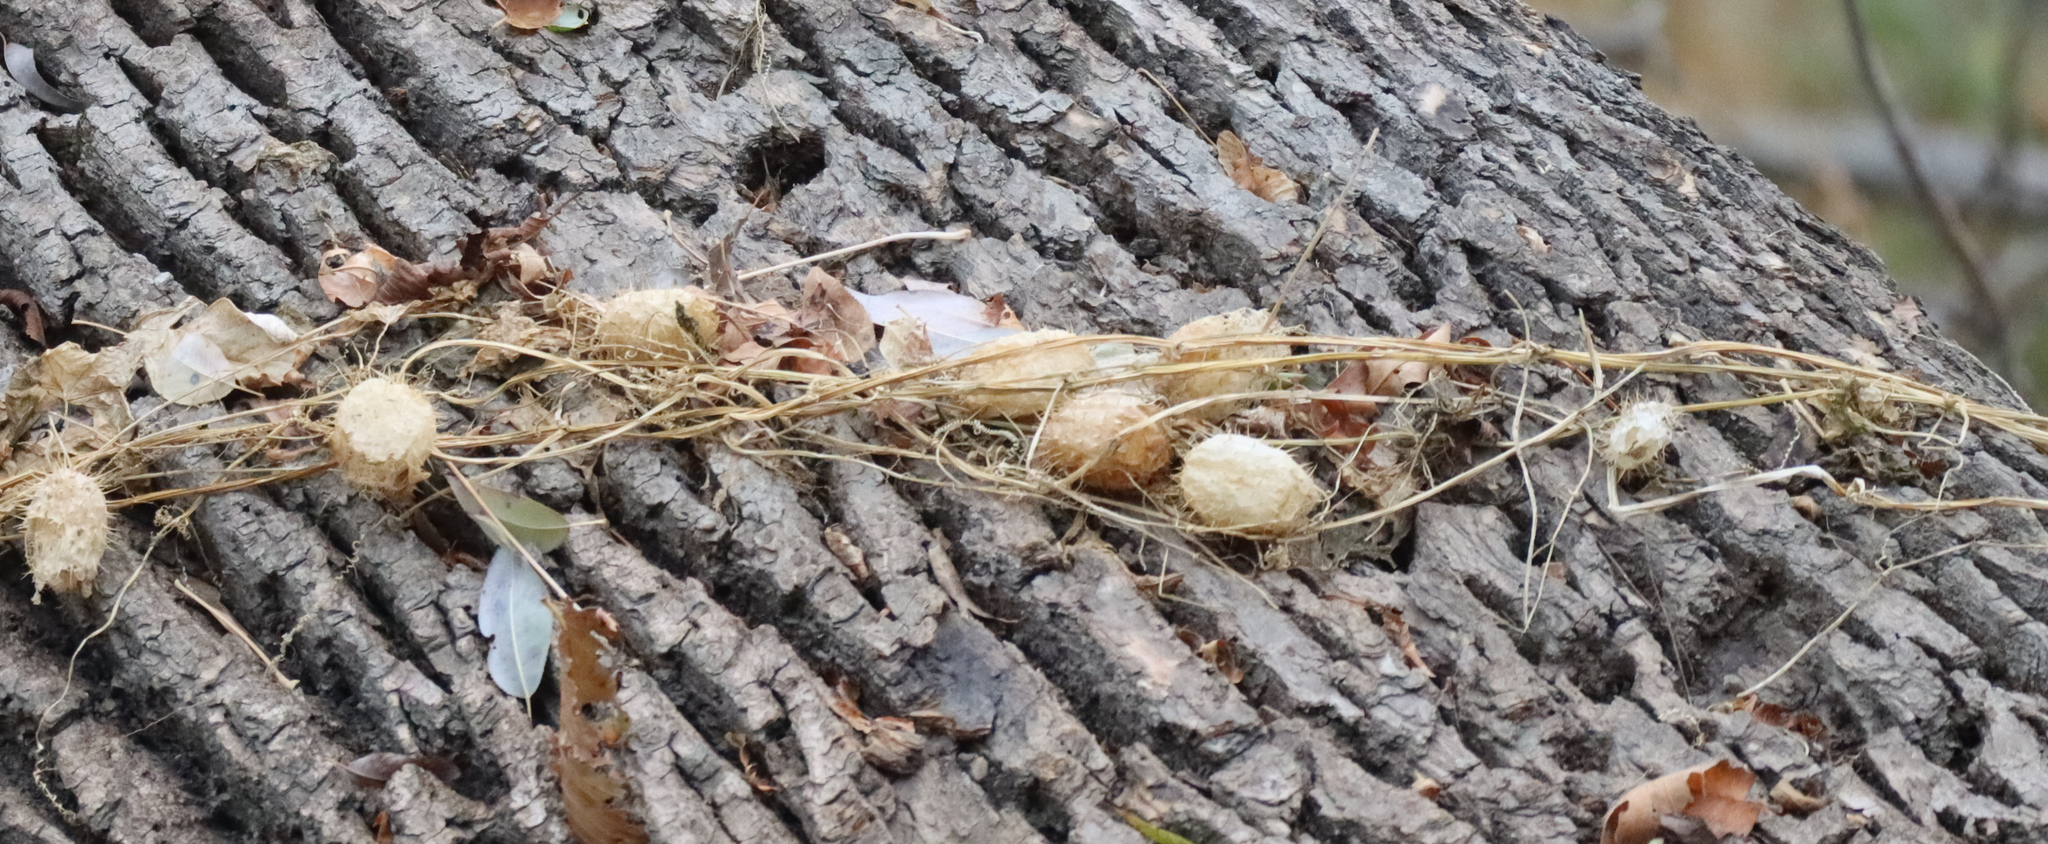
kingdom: Plantae
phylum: Tracheophyta
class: Magnoliopsida
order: Cucurbitales
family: Cucurbitaceae
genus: Echinocystis
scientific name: Echinocystis lobata
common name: Wild cucumber
